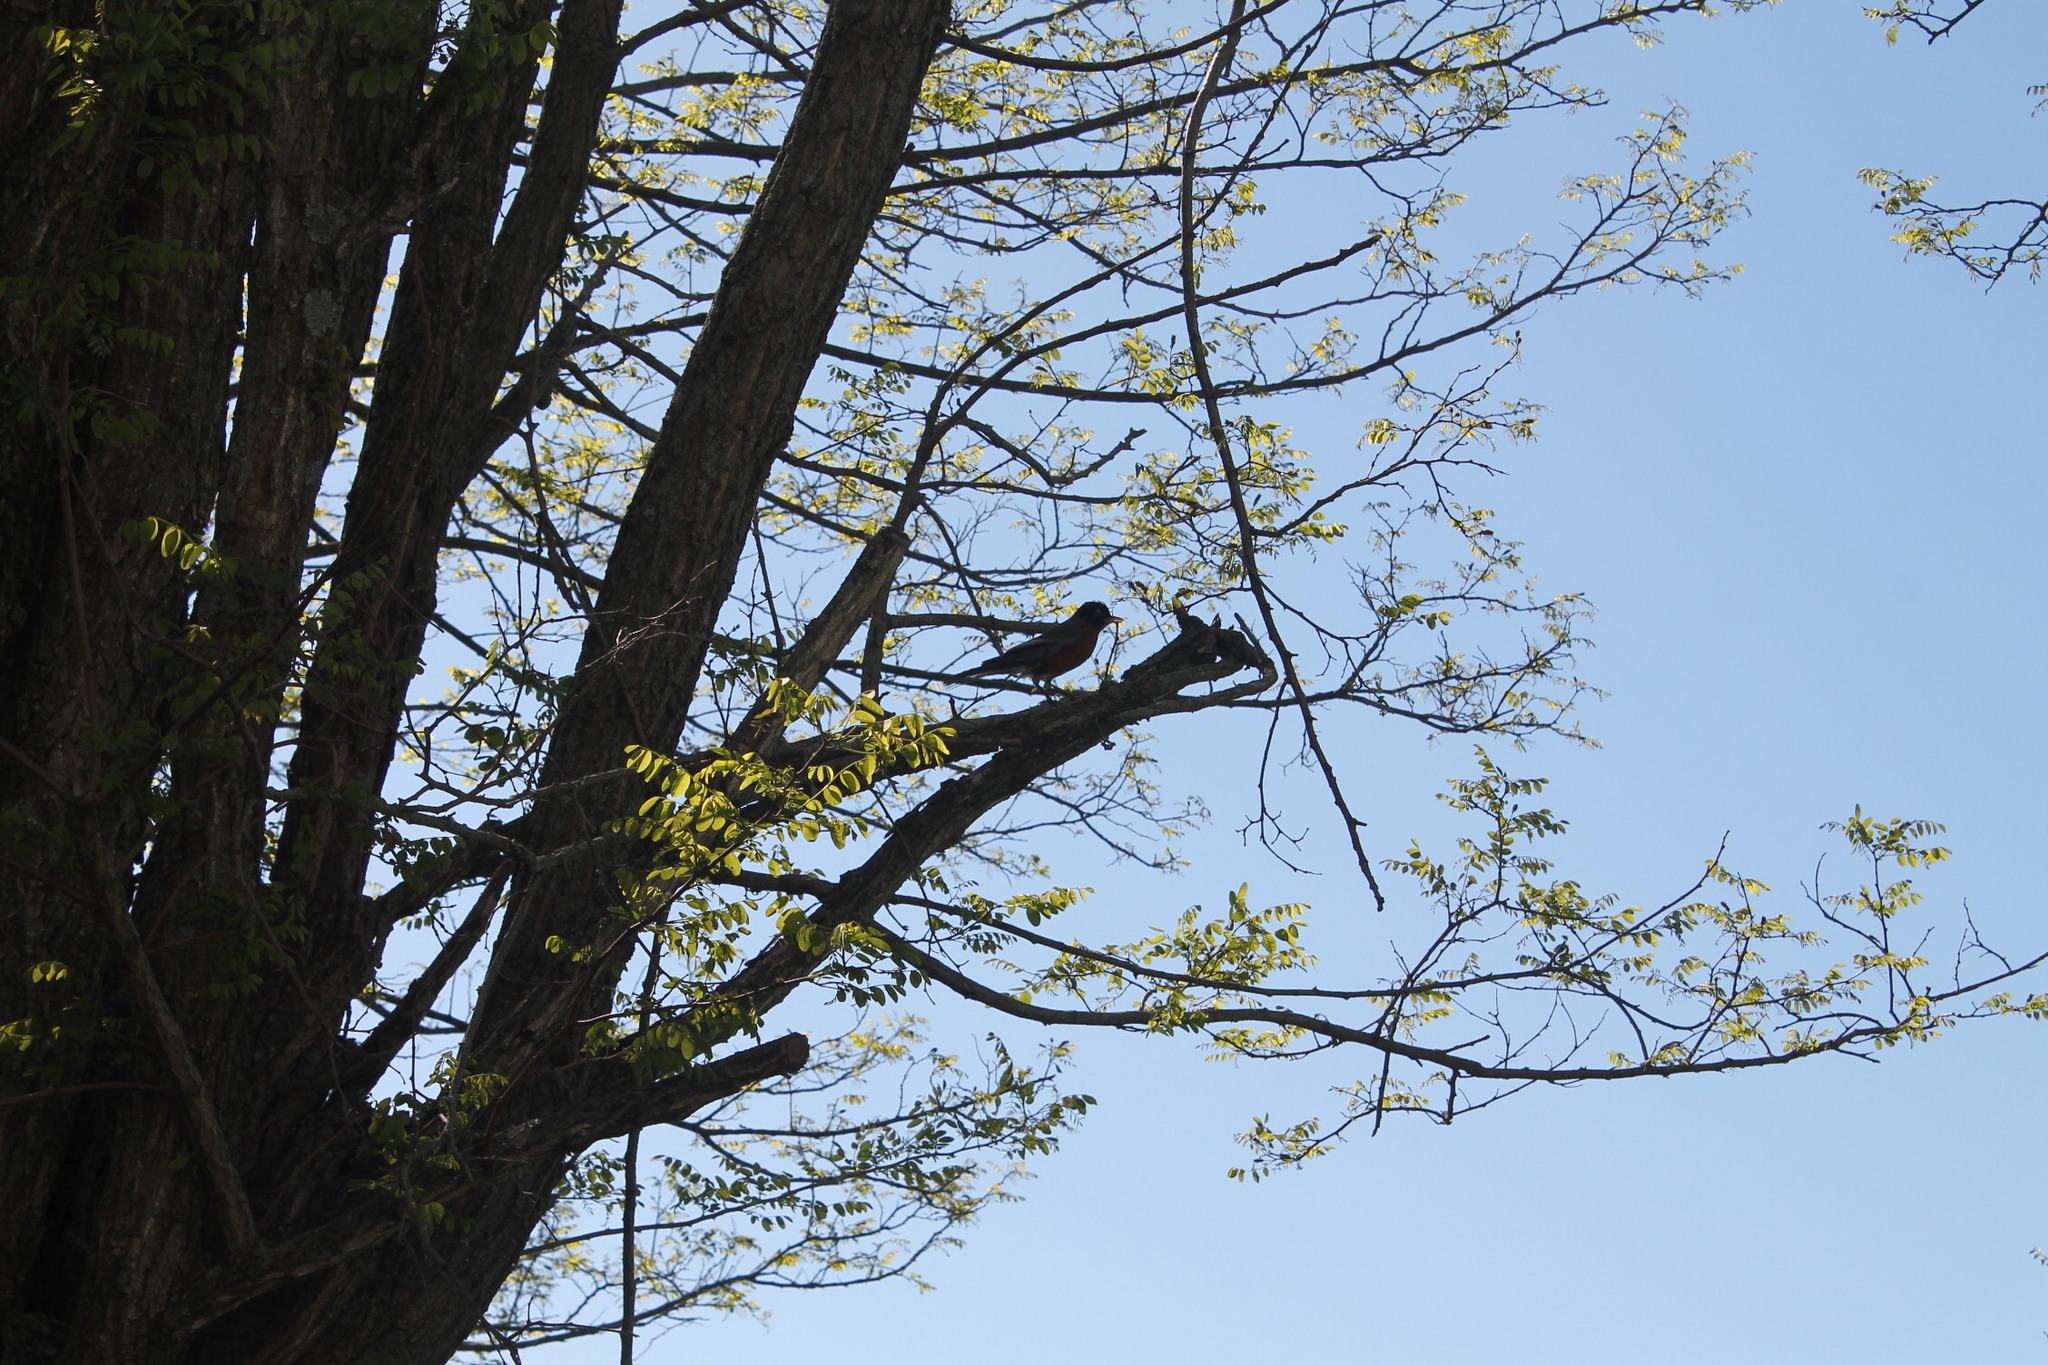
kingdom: Animalia
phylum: Chordata
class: Aves
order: Passeriformes
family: Turdidae
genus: Turdus
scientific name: Turdus migratorius
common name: American robin
